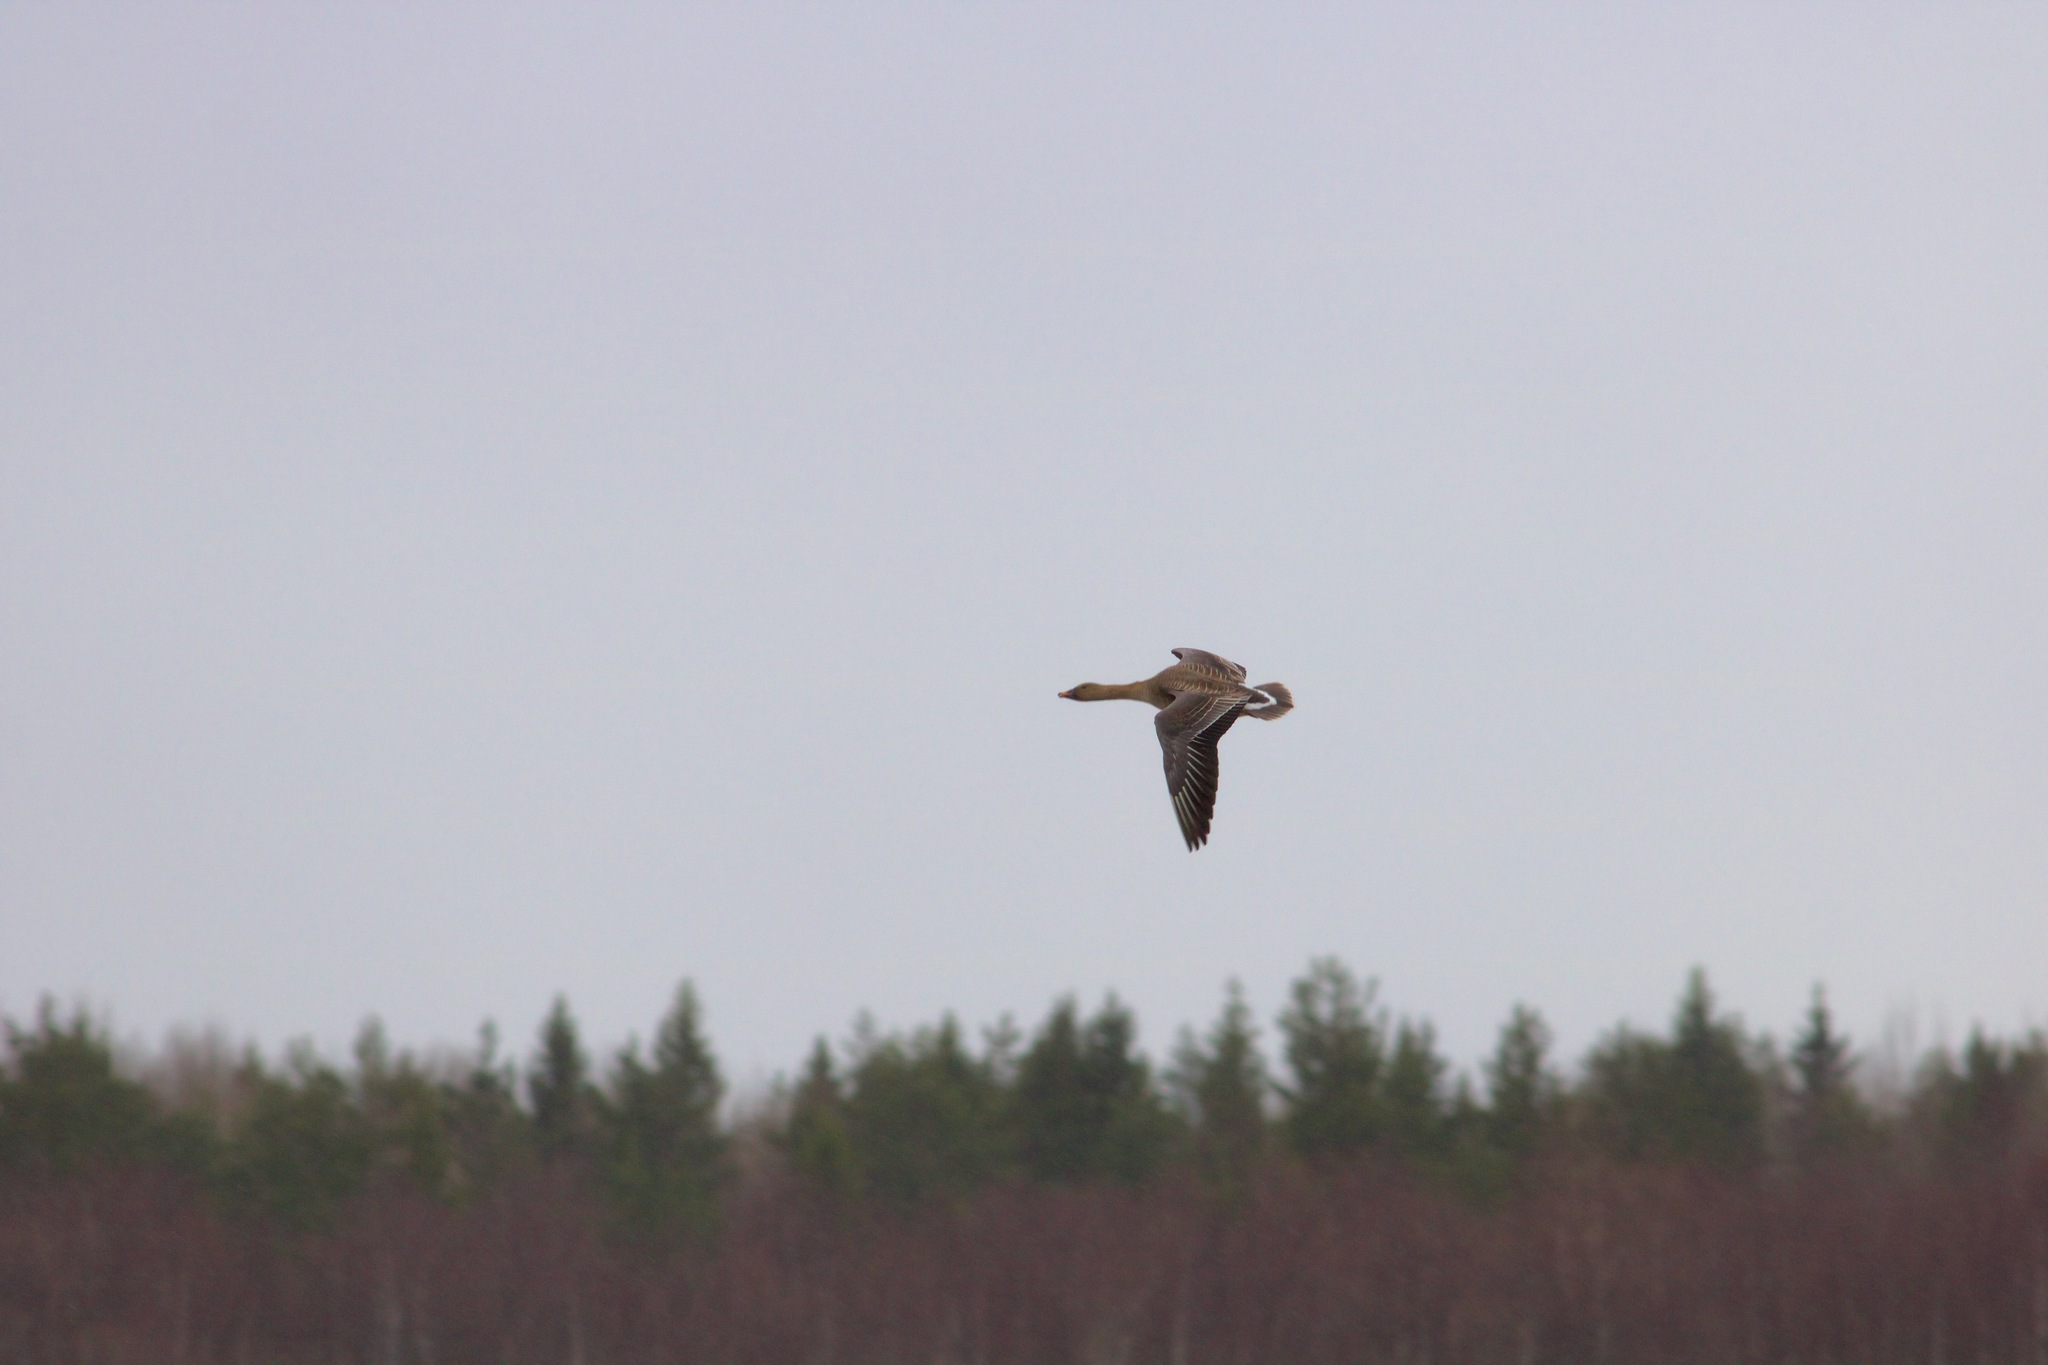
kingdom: Animalia
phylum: Chordata
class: Aves
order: Anseriformes
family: Anatidae
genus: Anser
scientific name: Anser fabalis
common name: Bean goose
